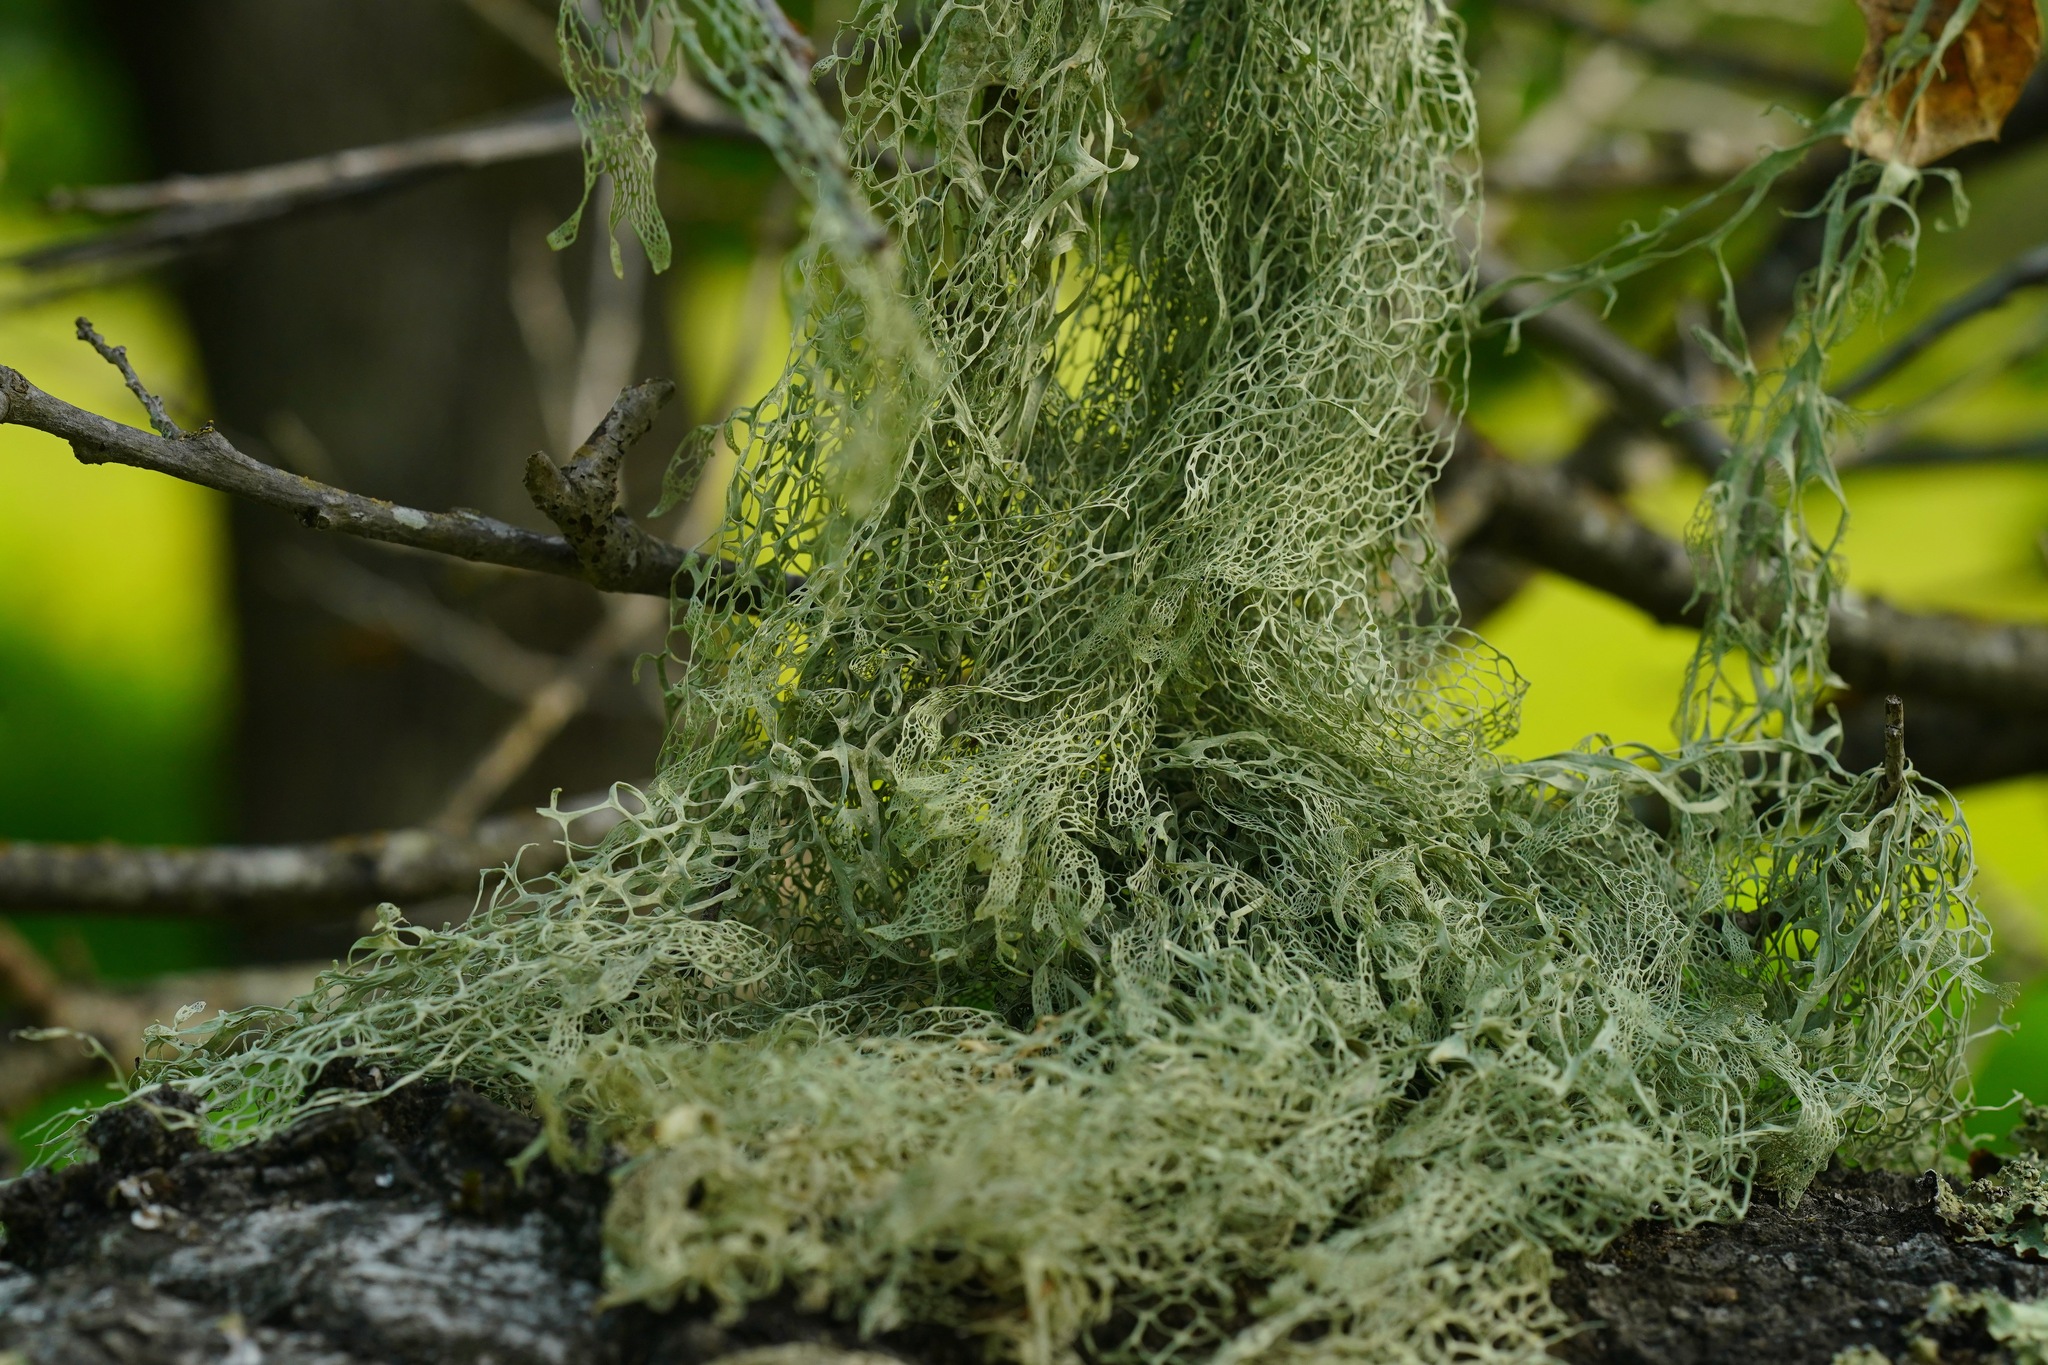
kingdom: Fungi
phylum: Ascomycota
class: Lecanoromycetes
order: Lecanorales
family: Ramalinaceae
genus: Ramalina
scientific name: Ramalina menziesii
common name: Lace lichen
